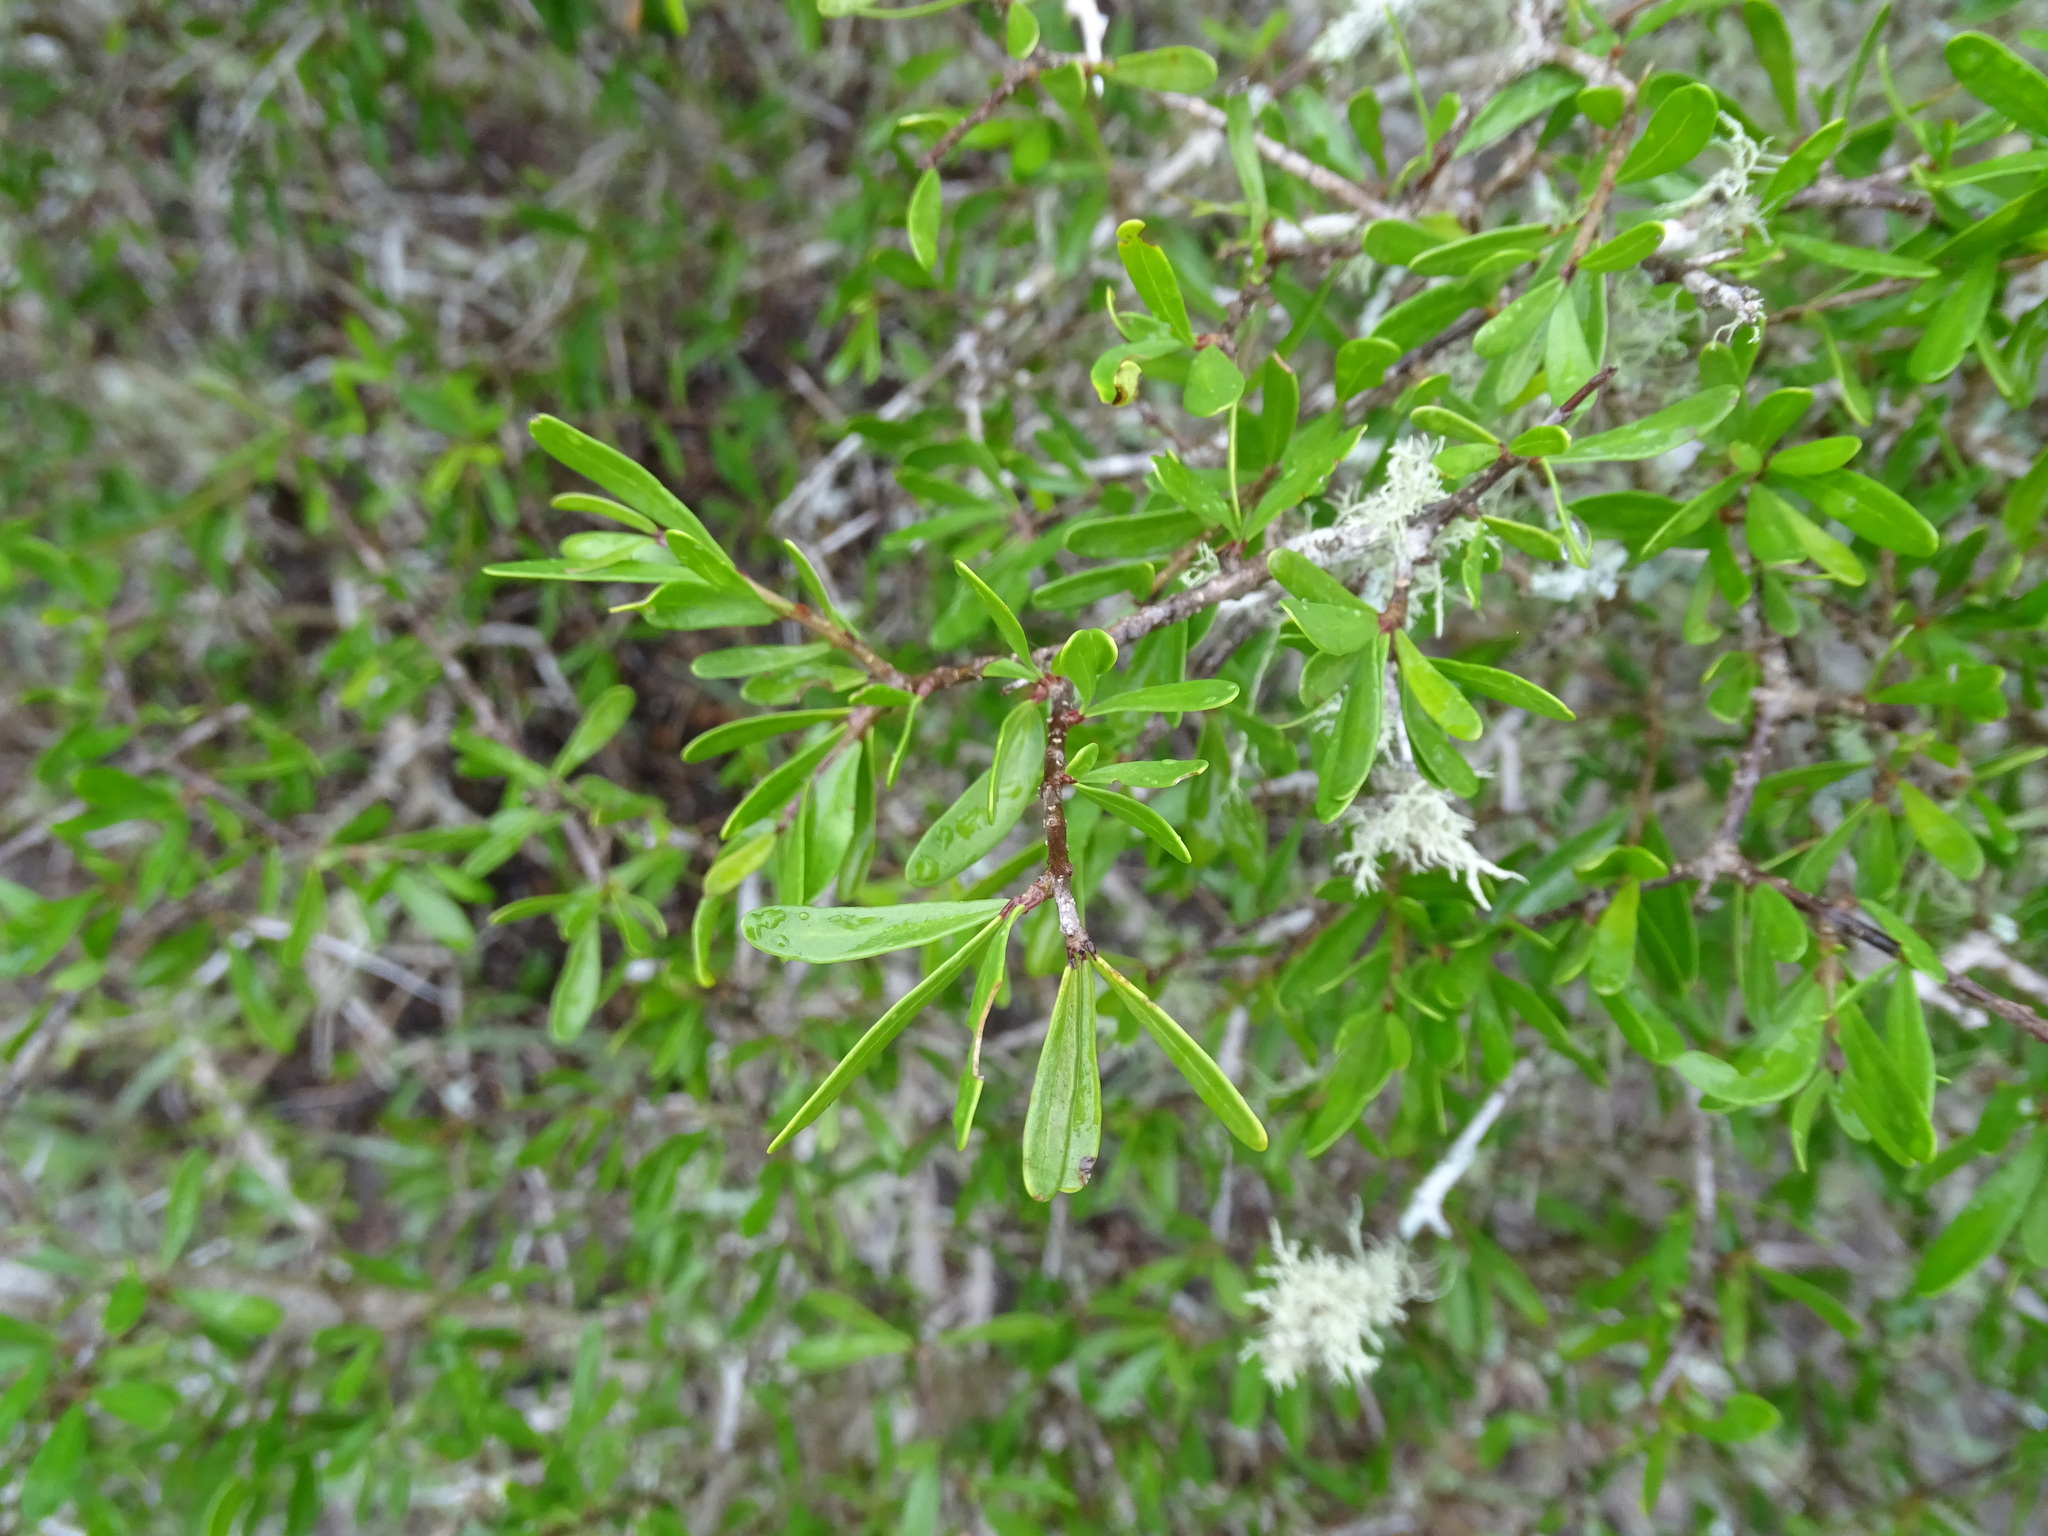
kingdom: Plantae
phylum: Tracheophyta
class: Magnoliopsida
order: Lamiales
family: Oleaceae
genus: Forestiera
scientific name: Forestiera angustifolia
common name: Elbowbush
